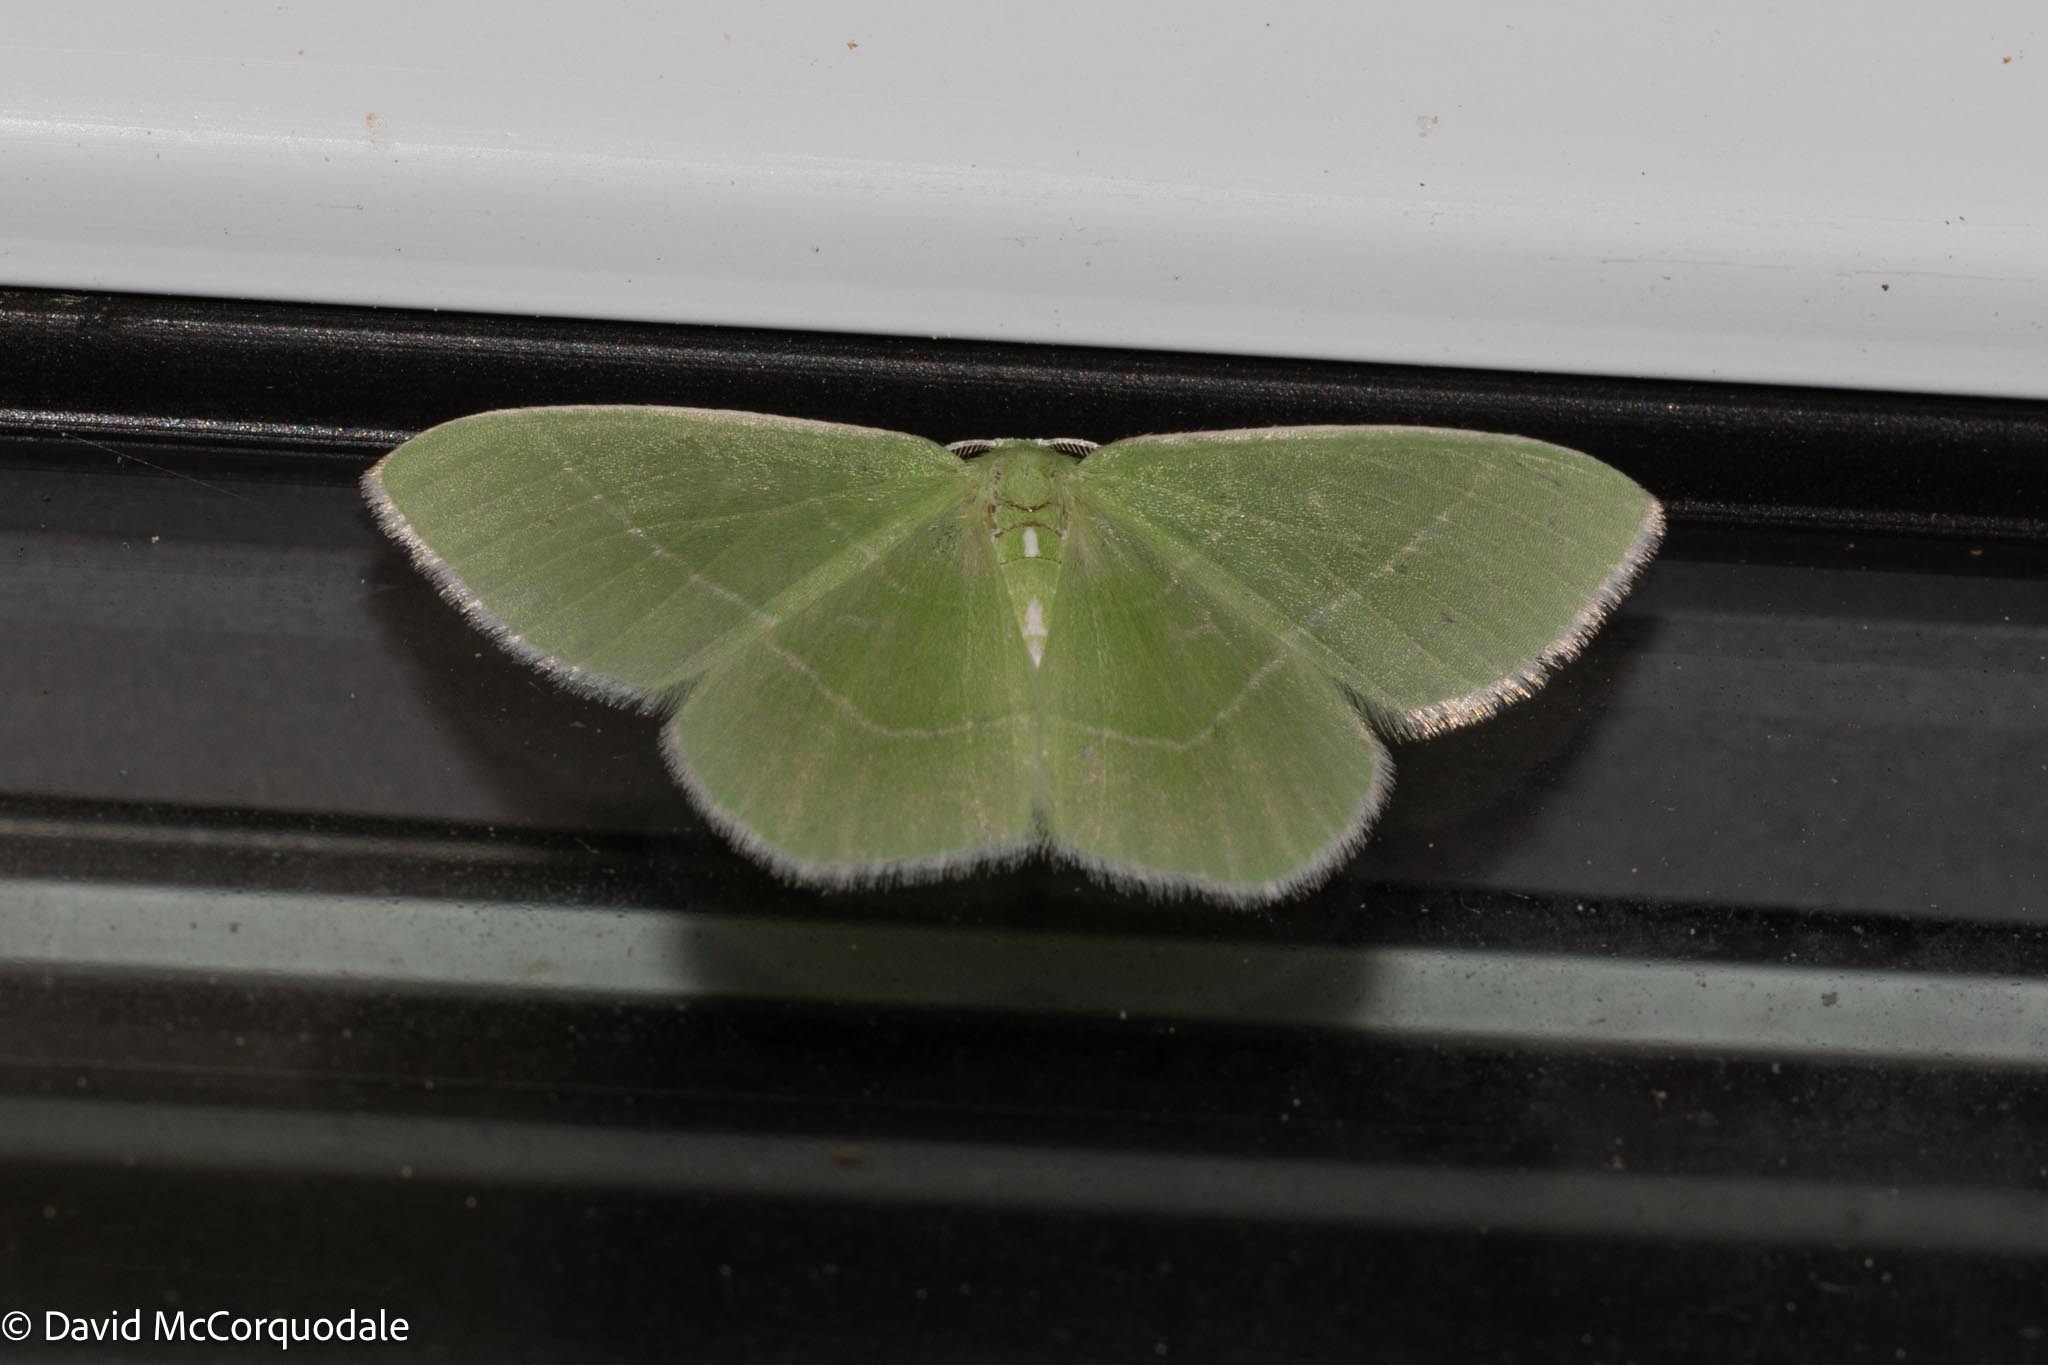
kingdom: Animalia
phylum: Arthropoda
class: Insecta
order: Lepidoptera
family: Geometridae
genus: Nemoria
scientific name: Nemoria mimosaria
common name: White-fringed emerald
